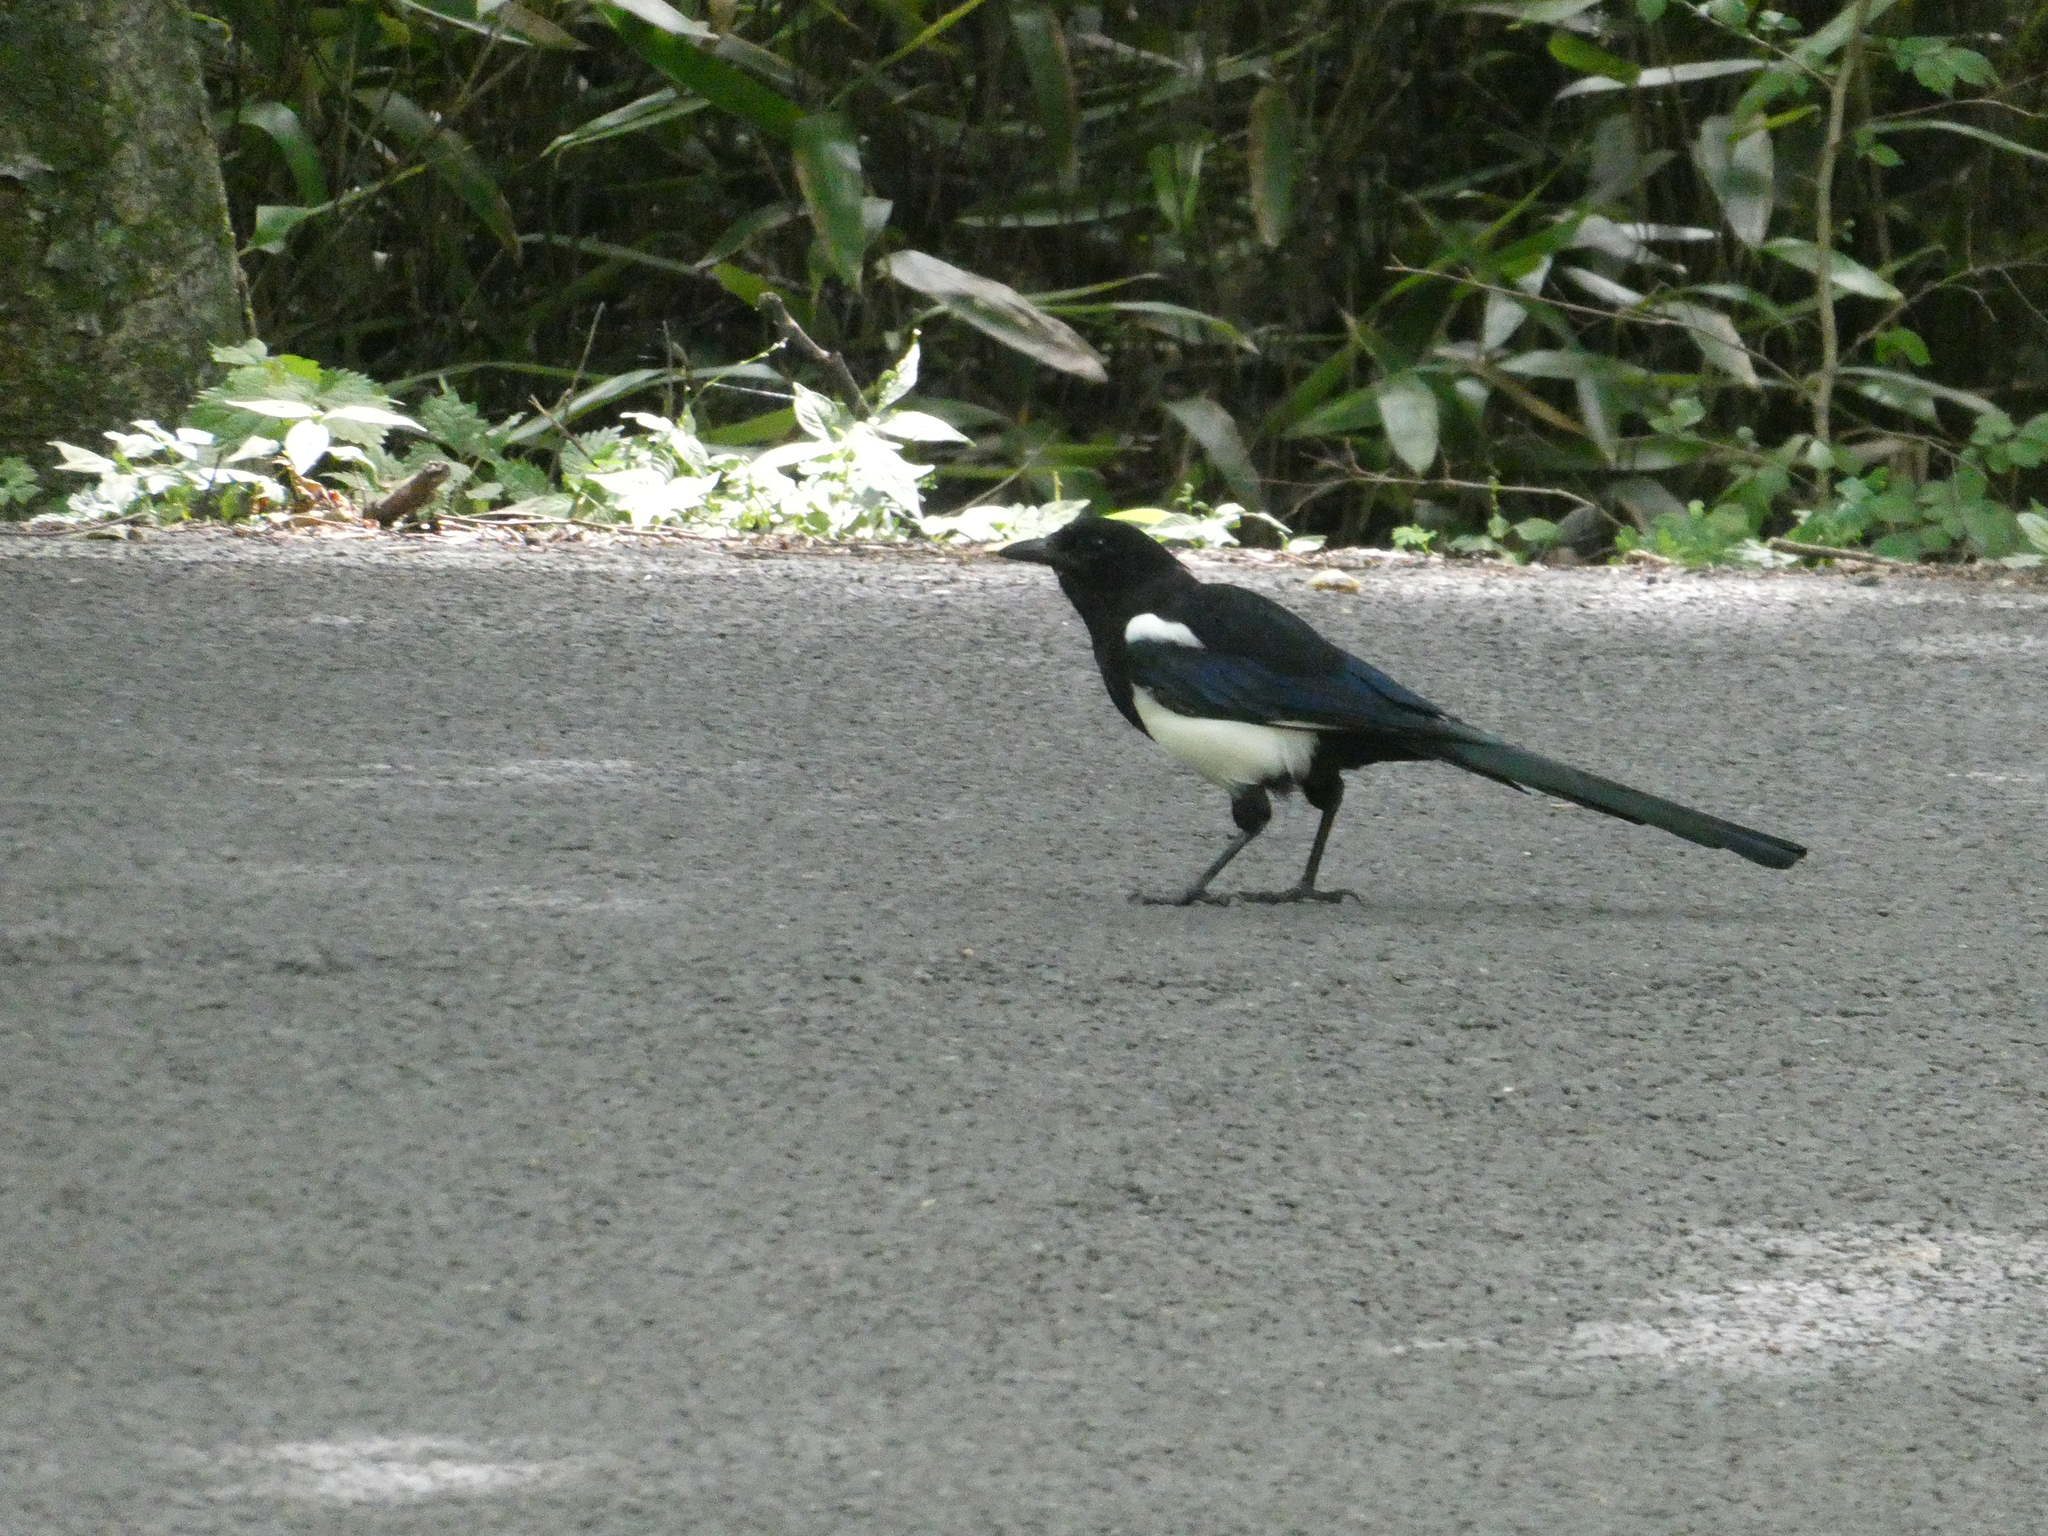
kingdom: Animalia
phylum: Chordata
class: Aves
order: Passeriformes
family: Corvidae
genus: Pica
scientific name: Pica serica
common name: Oriental magpie
